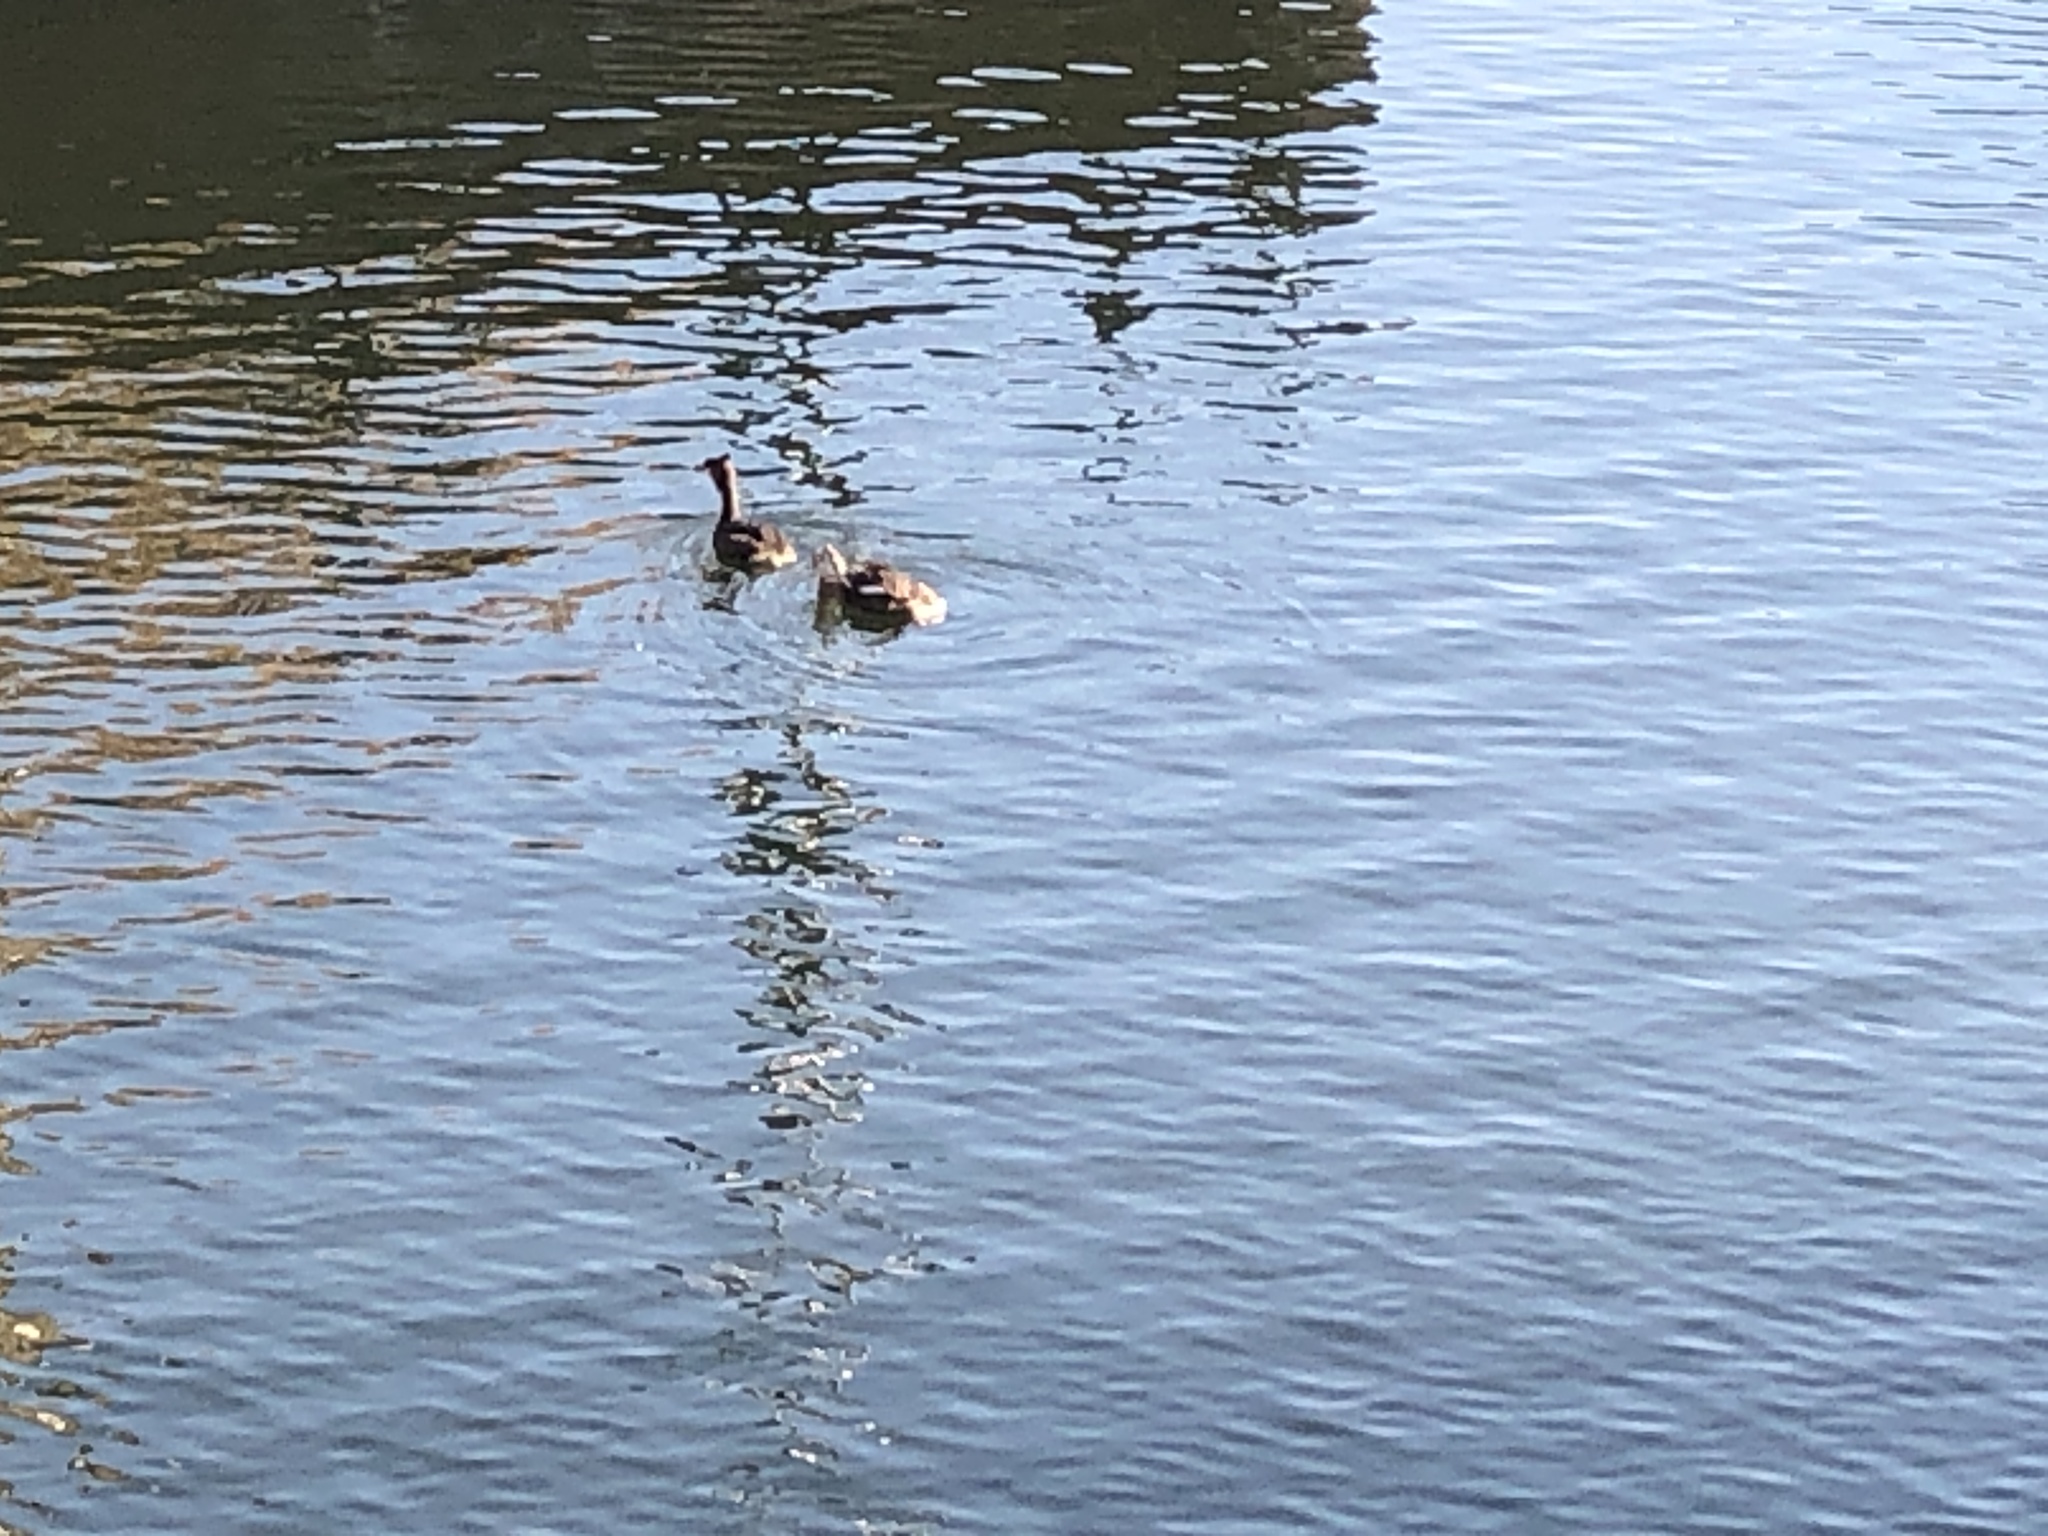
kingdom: Animalia
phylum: Chordata
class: Aves
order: Podicipediformes
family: Podicipedidae
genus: Podiceps
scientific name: Podiceps cristatus
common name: Great crested grebe
